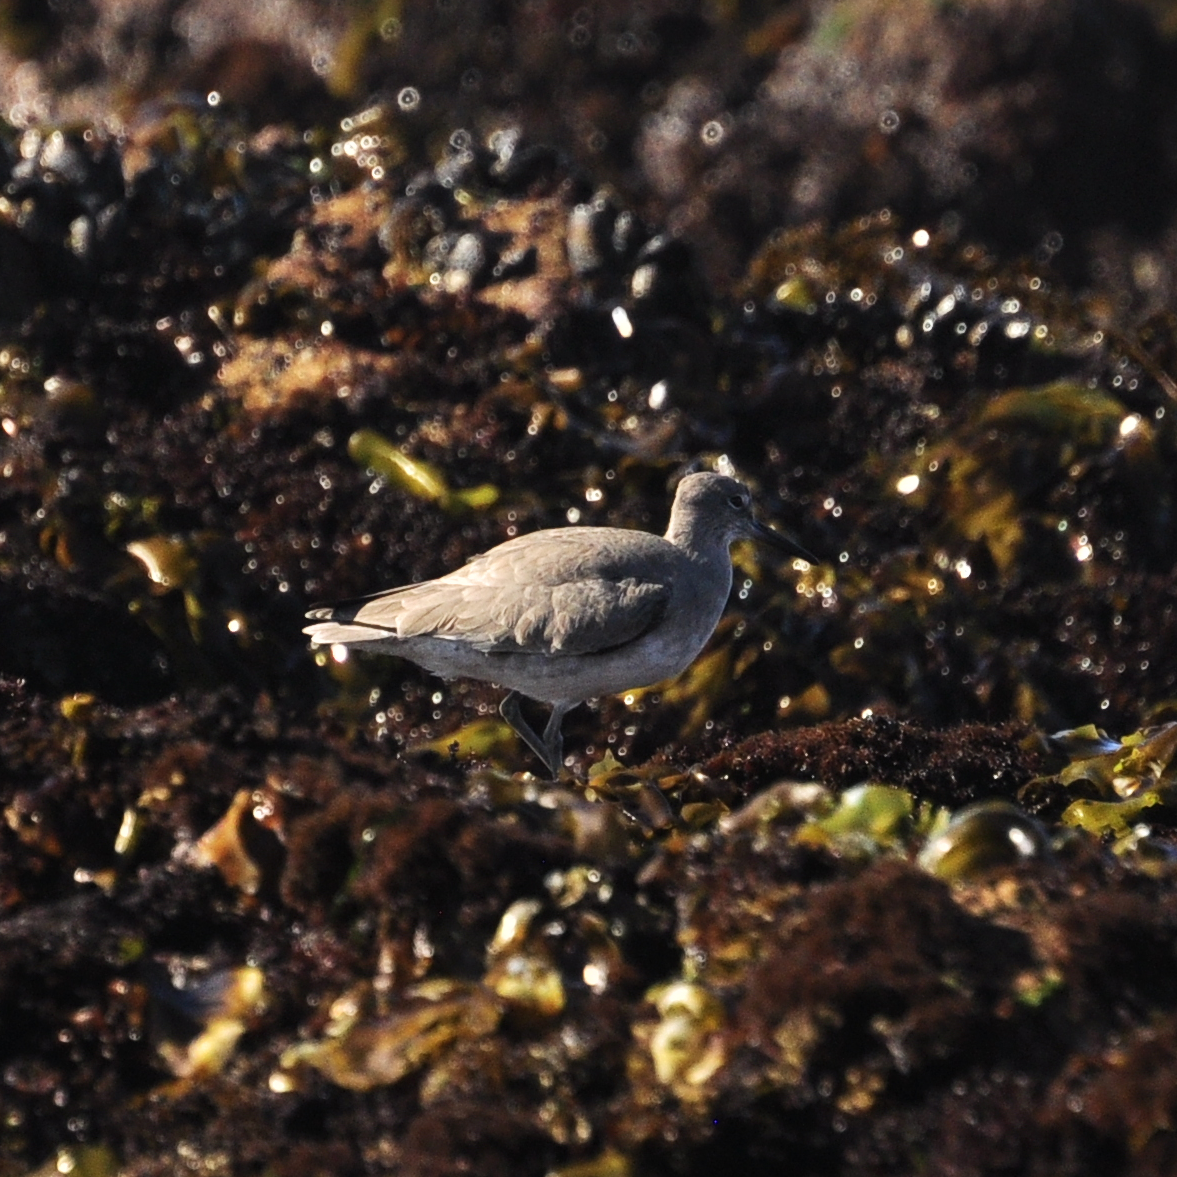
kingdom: Animalia
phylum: Chordata
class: Aves
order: Charadriiformes
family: Scolopacidae
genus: Tringa
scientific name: Tringa semipalmata
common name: Willet
